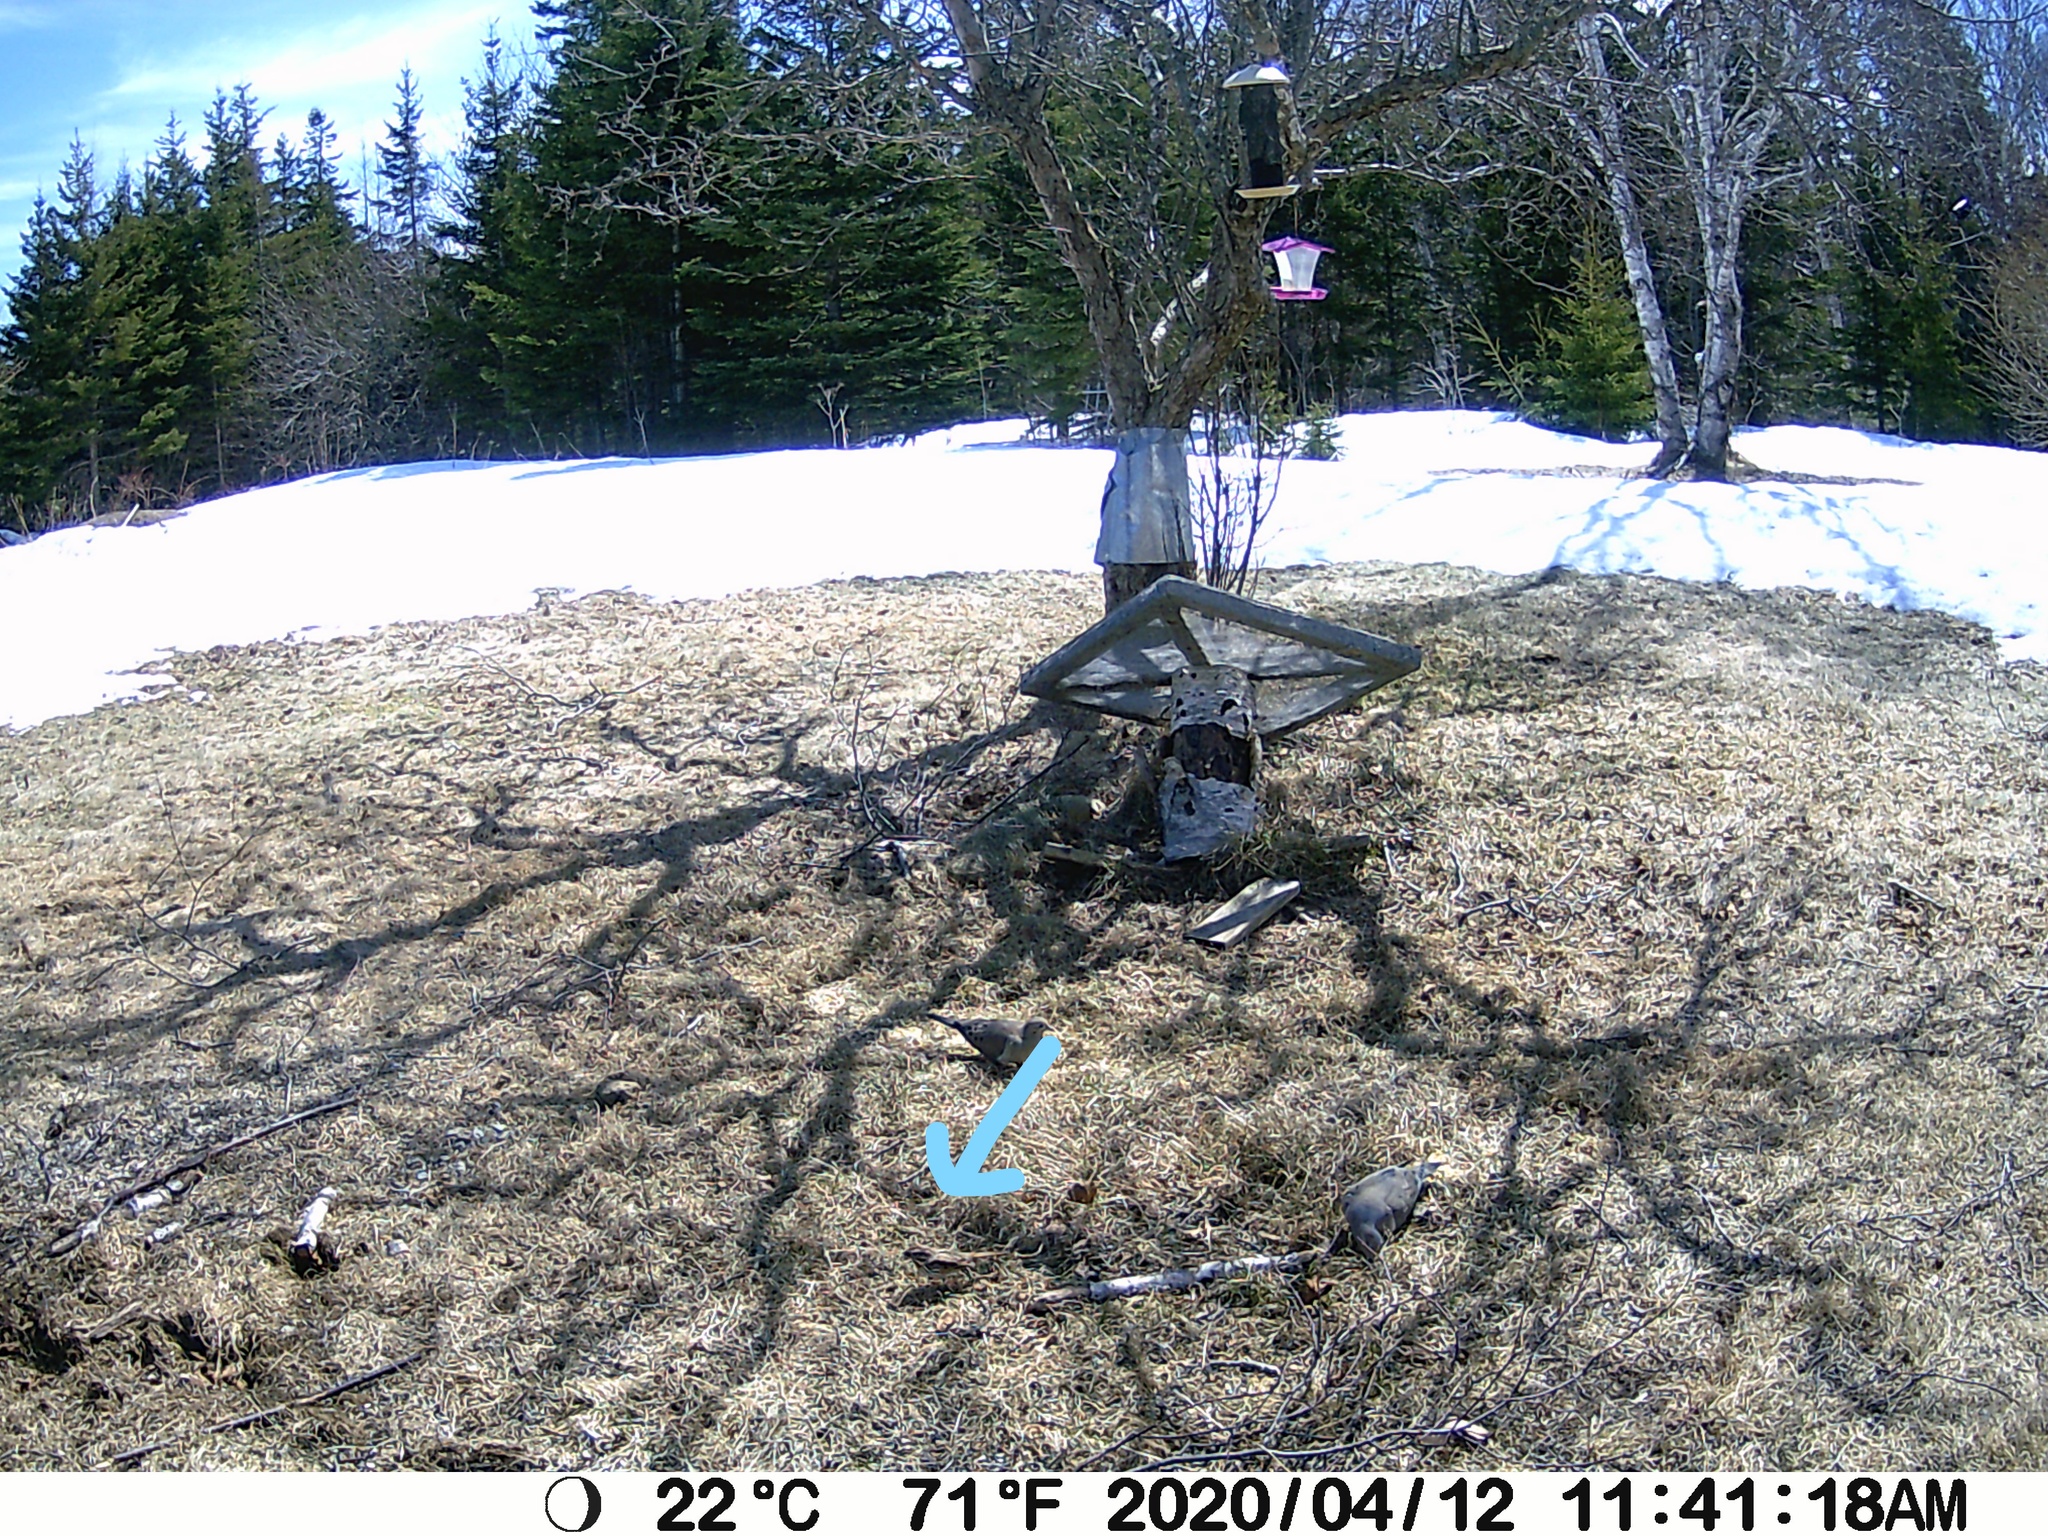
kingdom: Animalia
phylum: Chordata
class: Aves
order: Passeriformes
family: Passerellidae
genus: Melospiza
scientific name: Melospiza melodia
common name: Song sparrow
